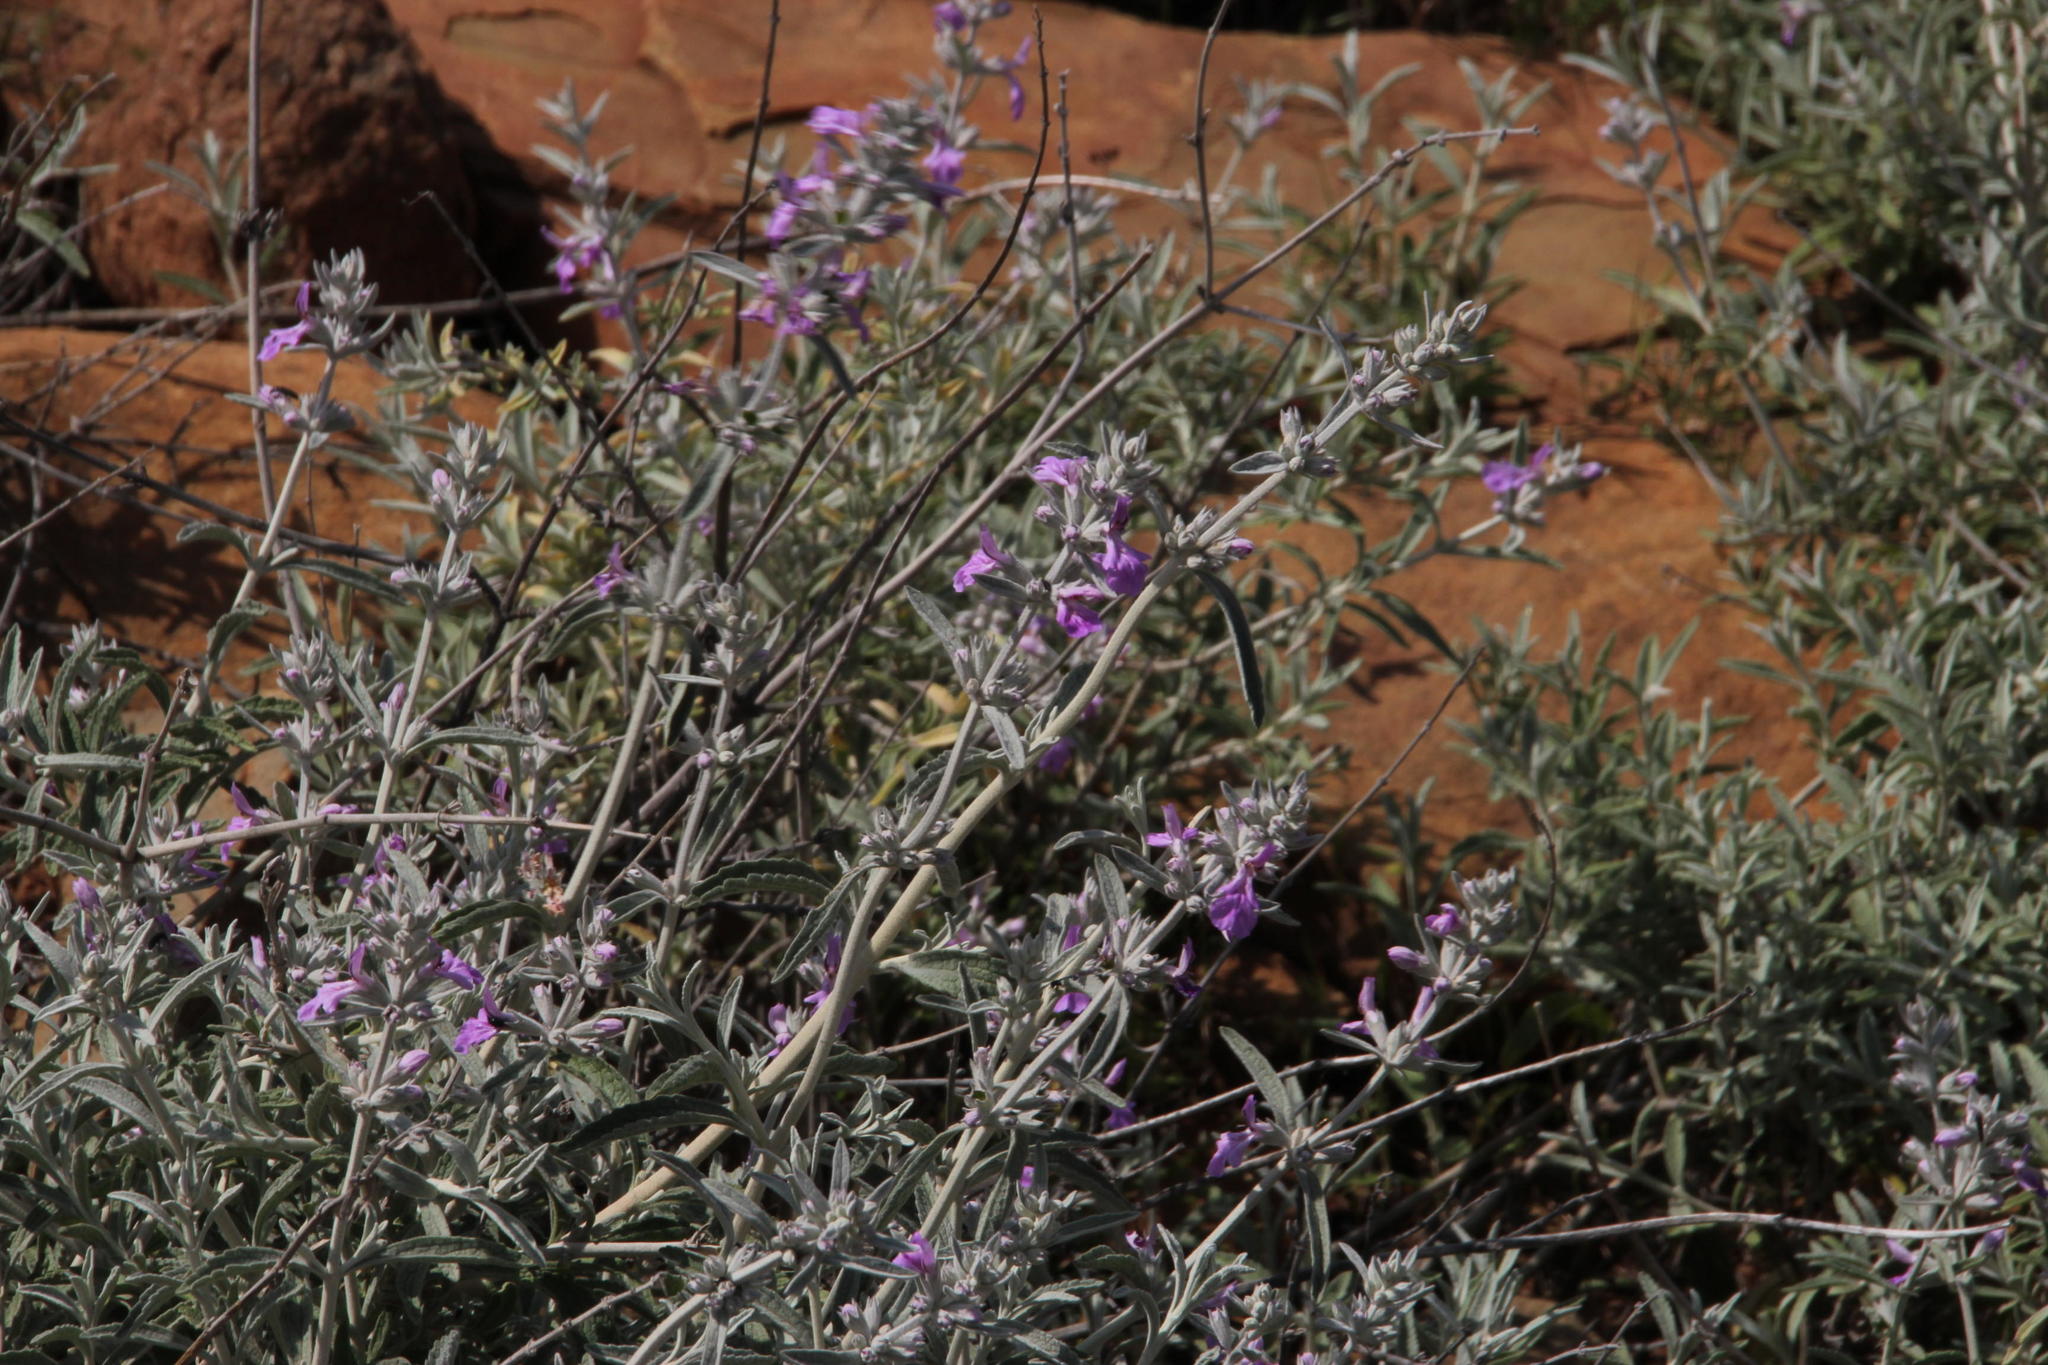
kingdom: Plantae
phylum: Tracheophyta
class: Magnoliopsida
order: Lamiales
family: Lamiaceae
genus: Stachys
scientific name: Stachys rugosa
